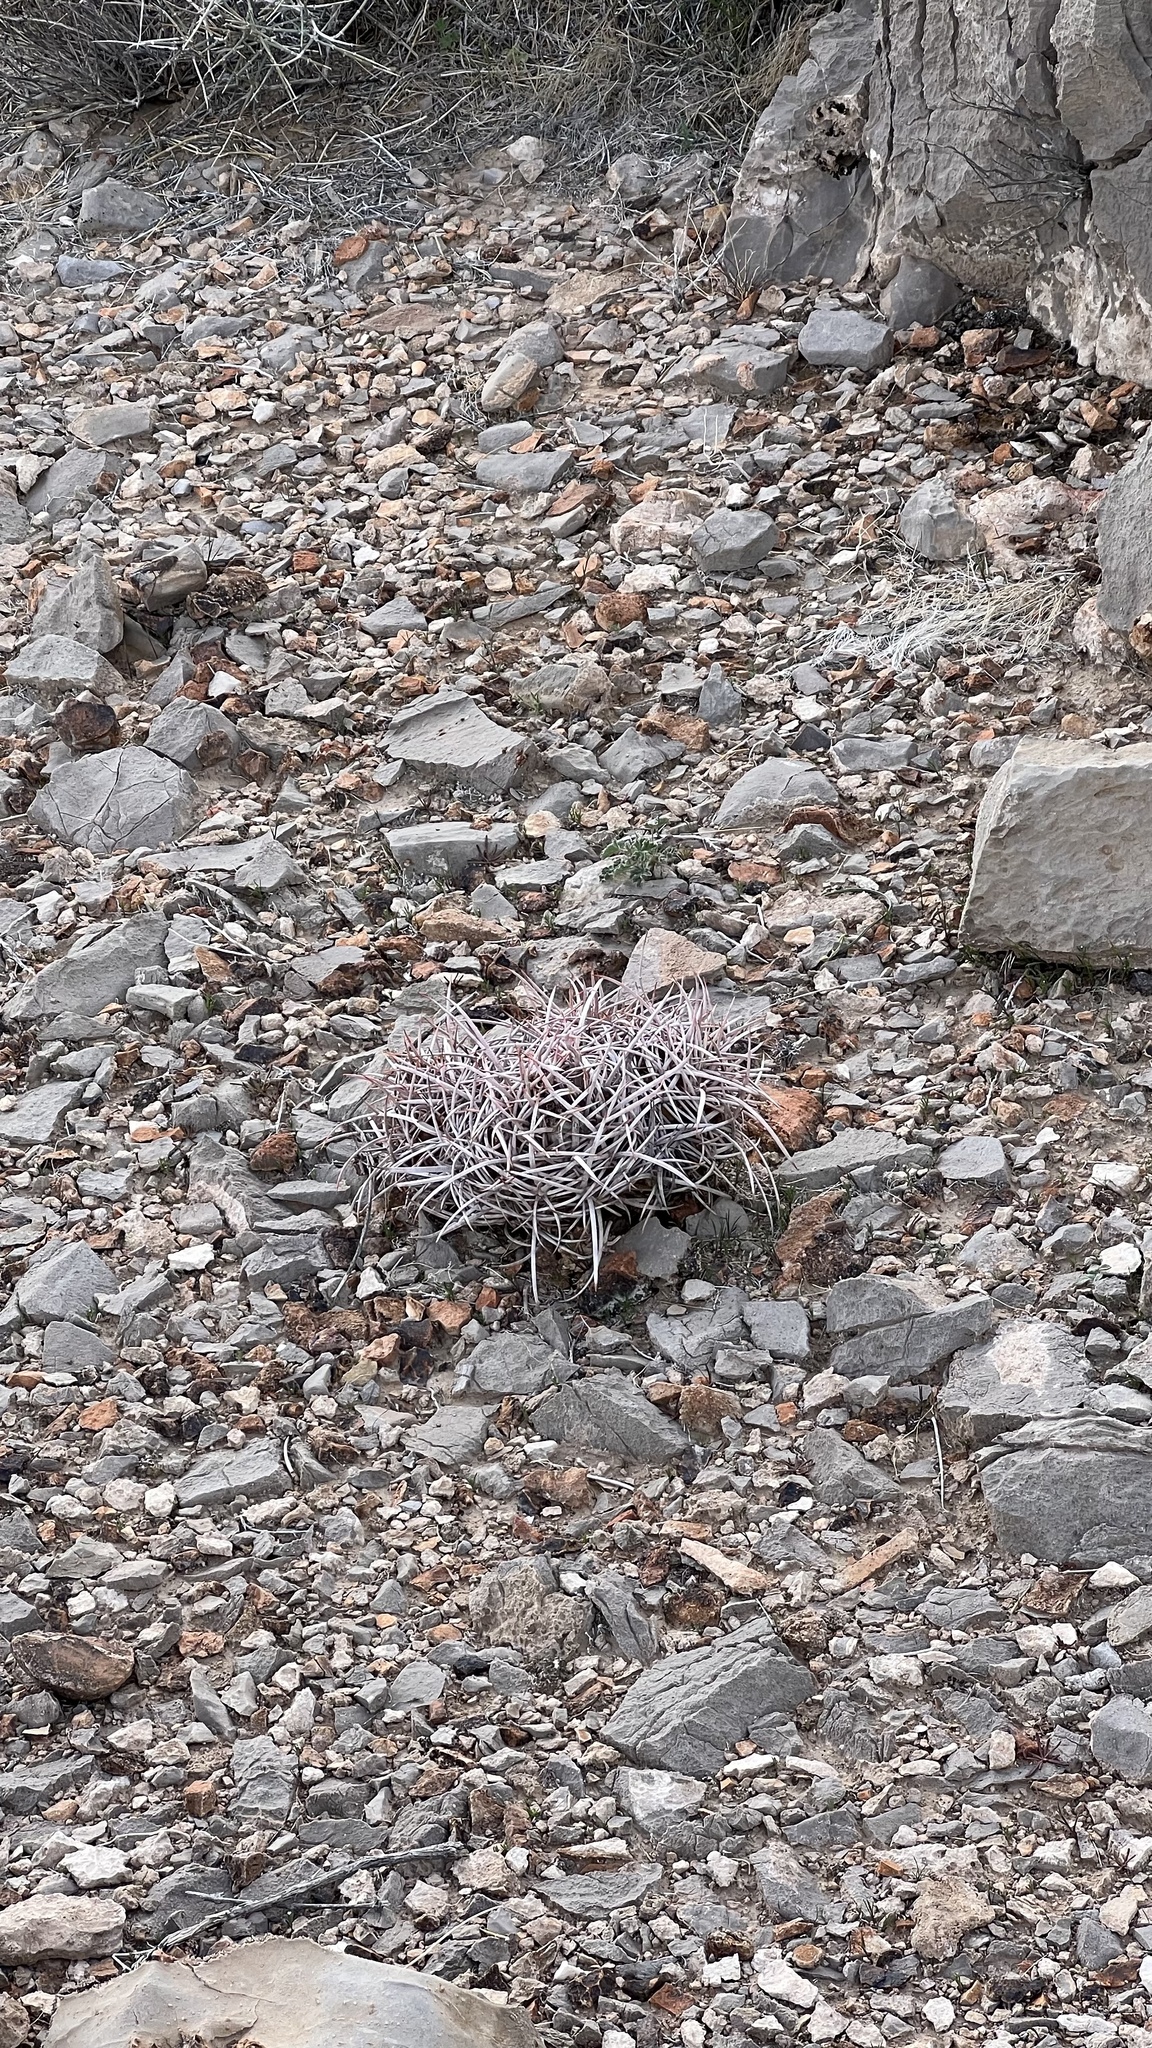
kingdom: Plantae
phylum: Tracheophyta
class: Magnoliopsida
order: Caryophyllales
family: Cactaceae
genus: Echinocactus
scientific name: Echinocactus polycephalus
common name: Cottontop cactus
